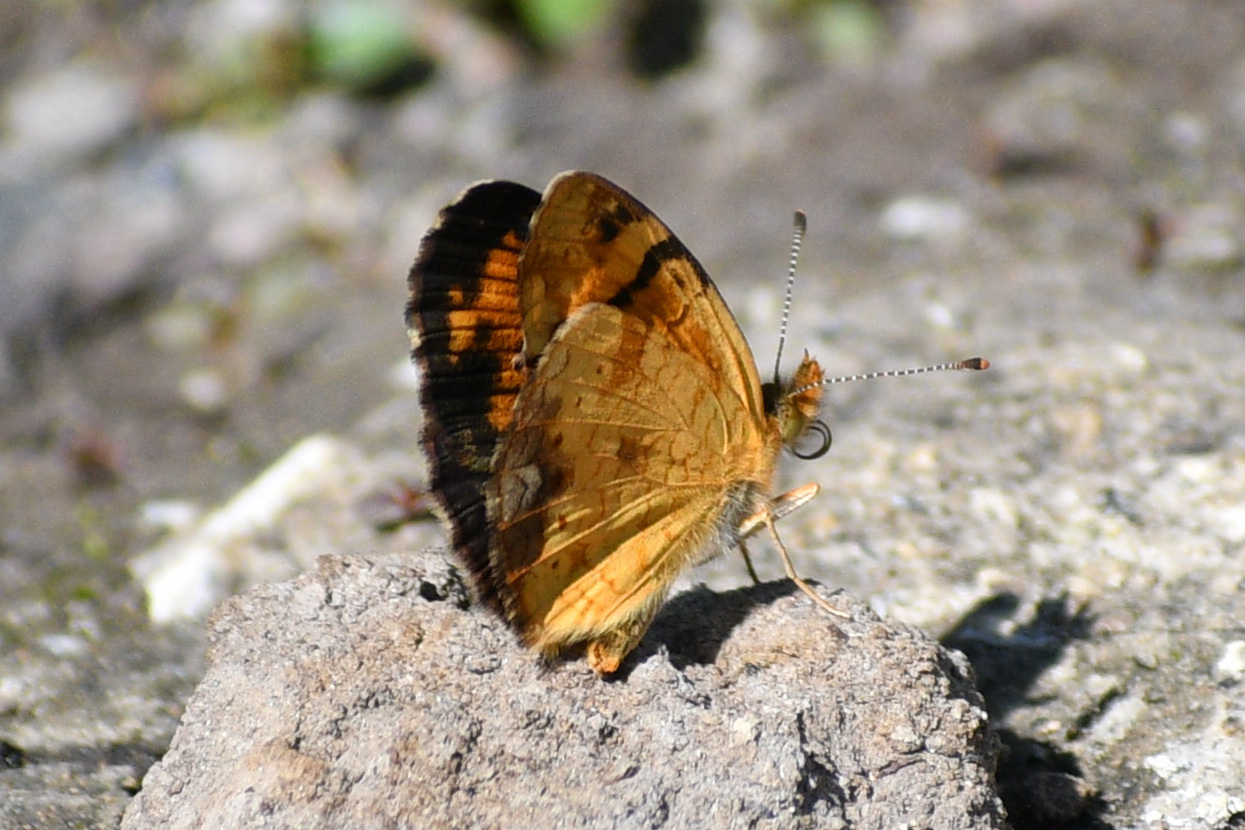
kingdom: Animalia
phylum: Arthropoda
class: Insecta
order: Lepidoptera
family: Nymphalidae
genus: Phyciodes
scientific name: Phyciodes tharos
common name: Pearl crescent
